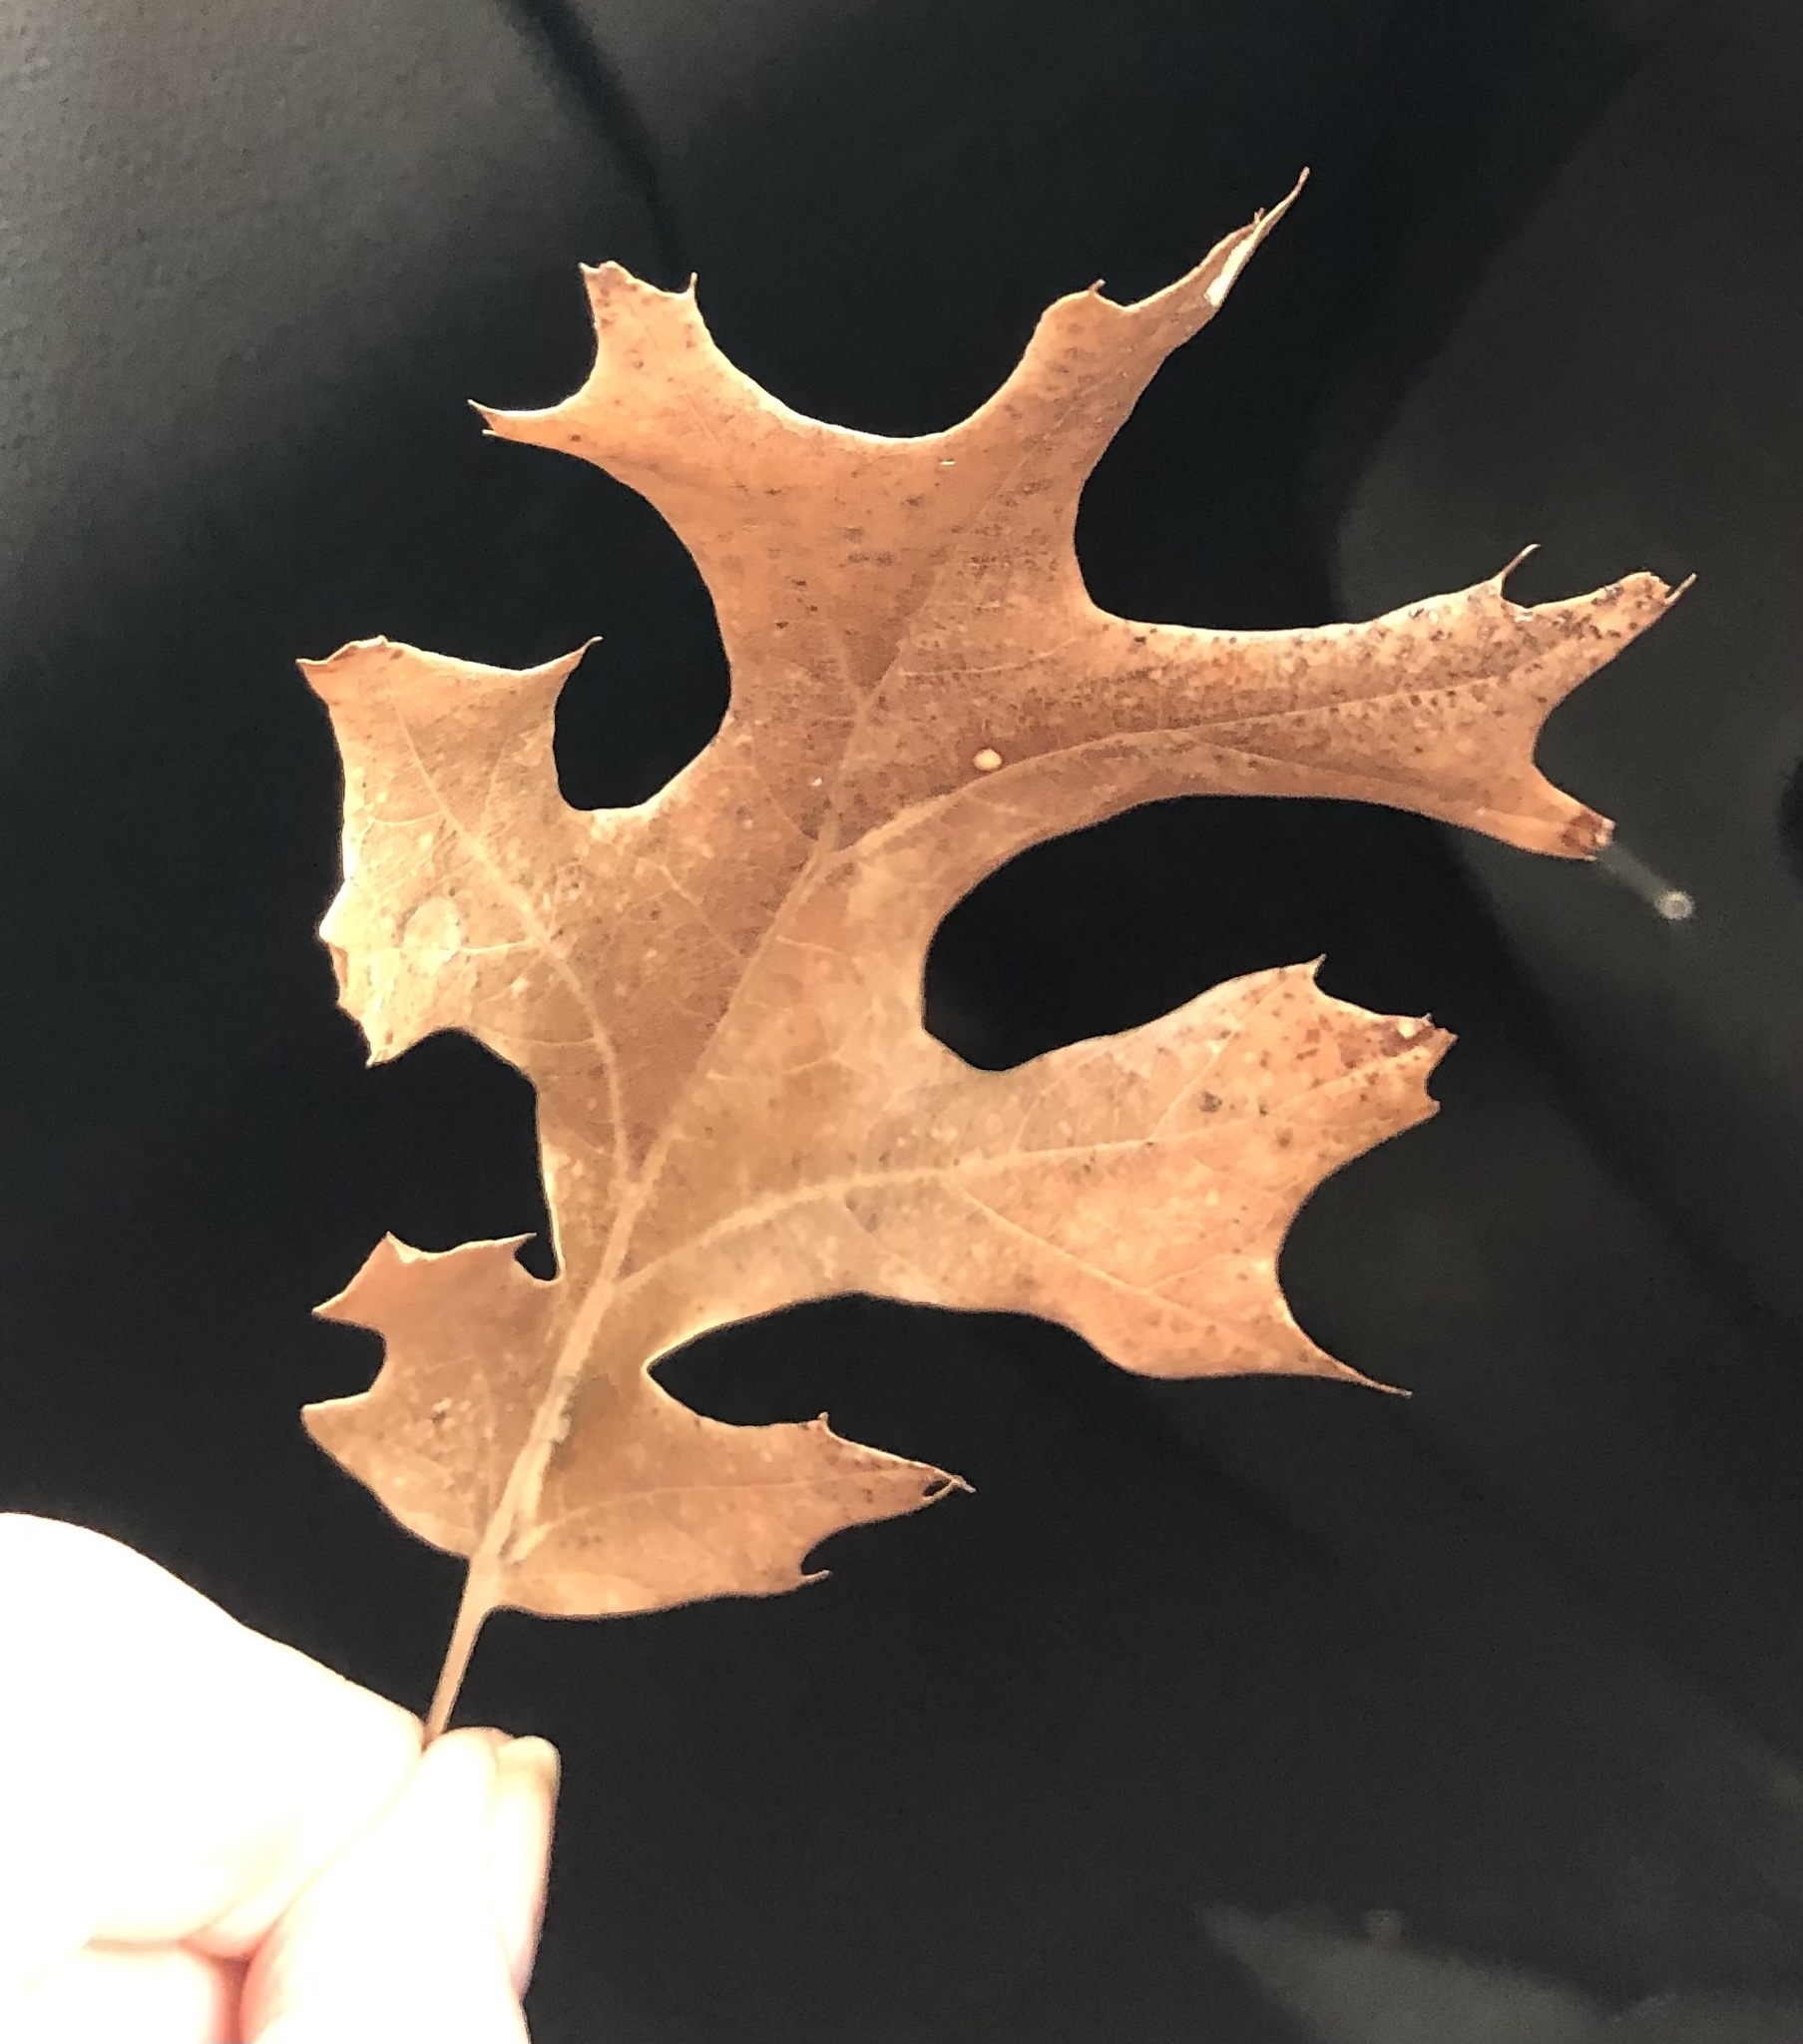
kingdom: Plantae
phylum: Tracheophyta
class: Magnoliopsida
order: Fagales
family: Fagaceae
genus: Quercus
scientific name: Quercus shumardii
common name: Shumard oak
